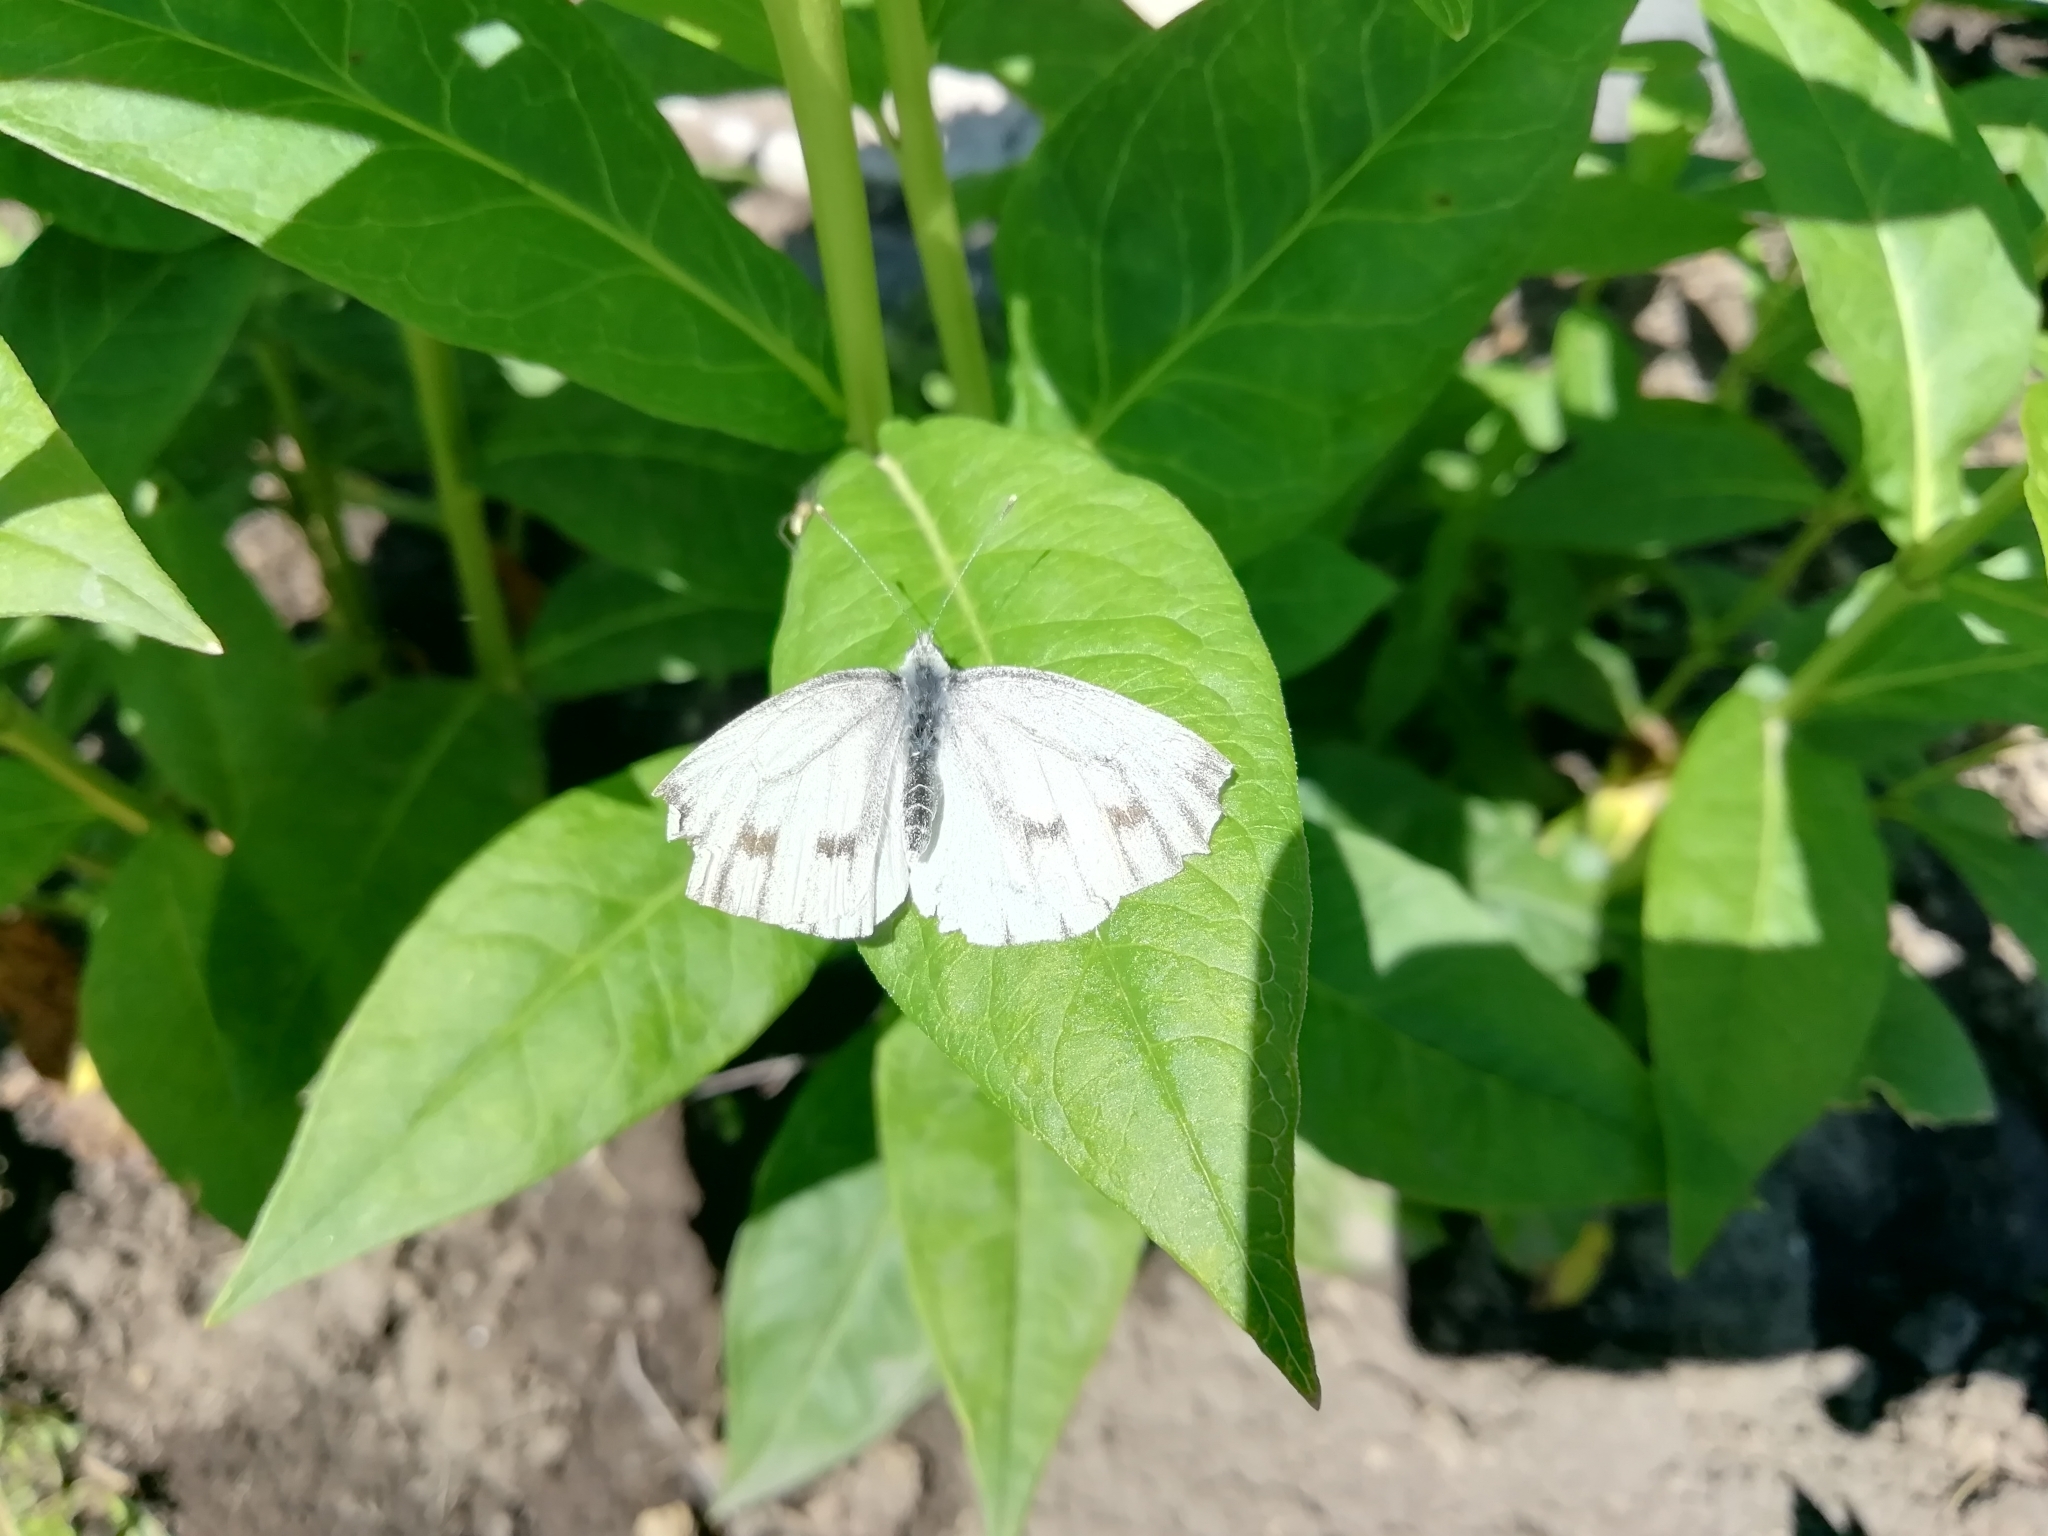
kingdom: Animalia
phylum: Arthropoda
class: Insecta
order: Lepidoptera
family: Pieridae
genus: Pieris
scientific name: Pieris napi
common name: Green-veined white
